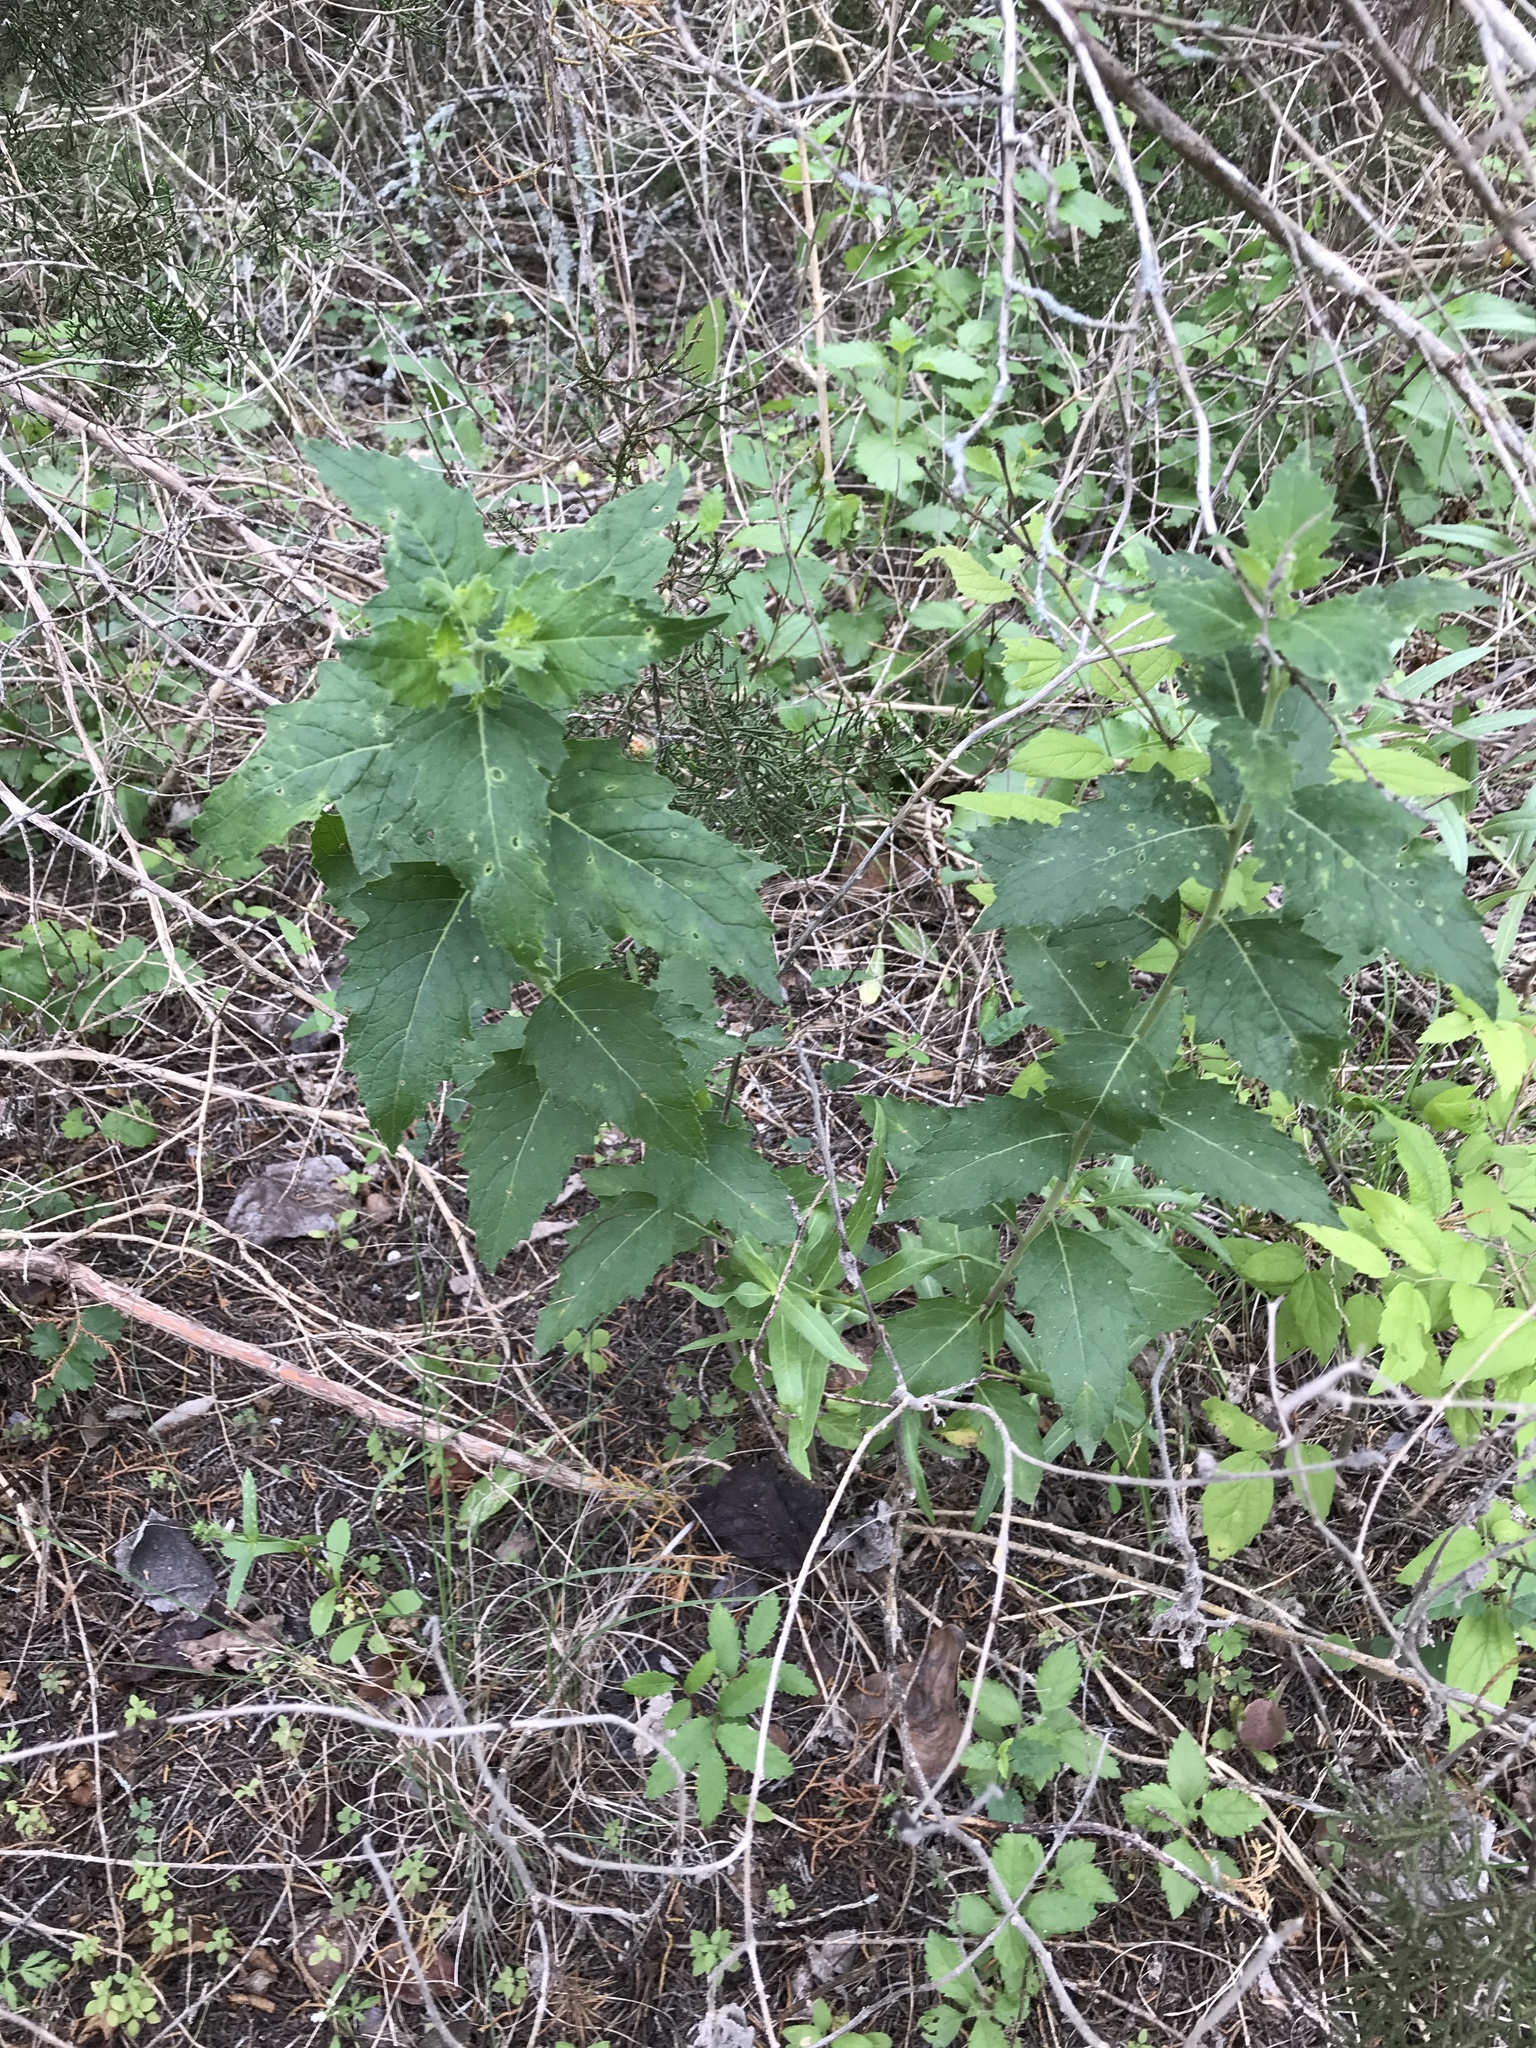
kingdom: Plantae
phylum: Tracheophyta
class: Magnoliopsida
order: Cornales
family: Loasaceae
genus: Mentzelia
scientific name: Mentzelia oligosperma
